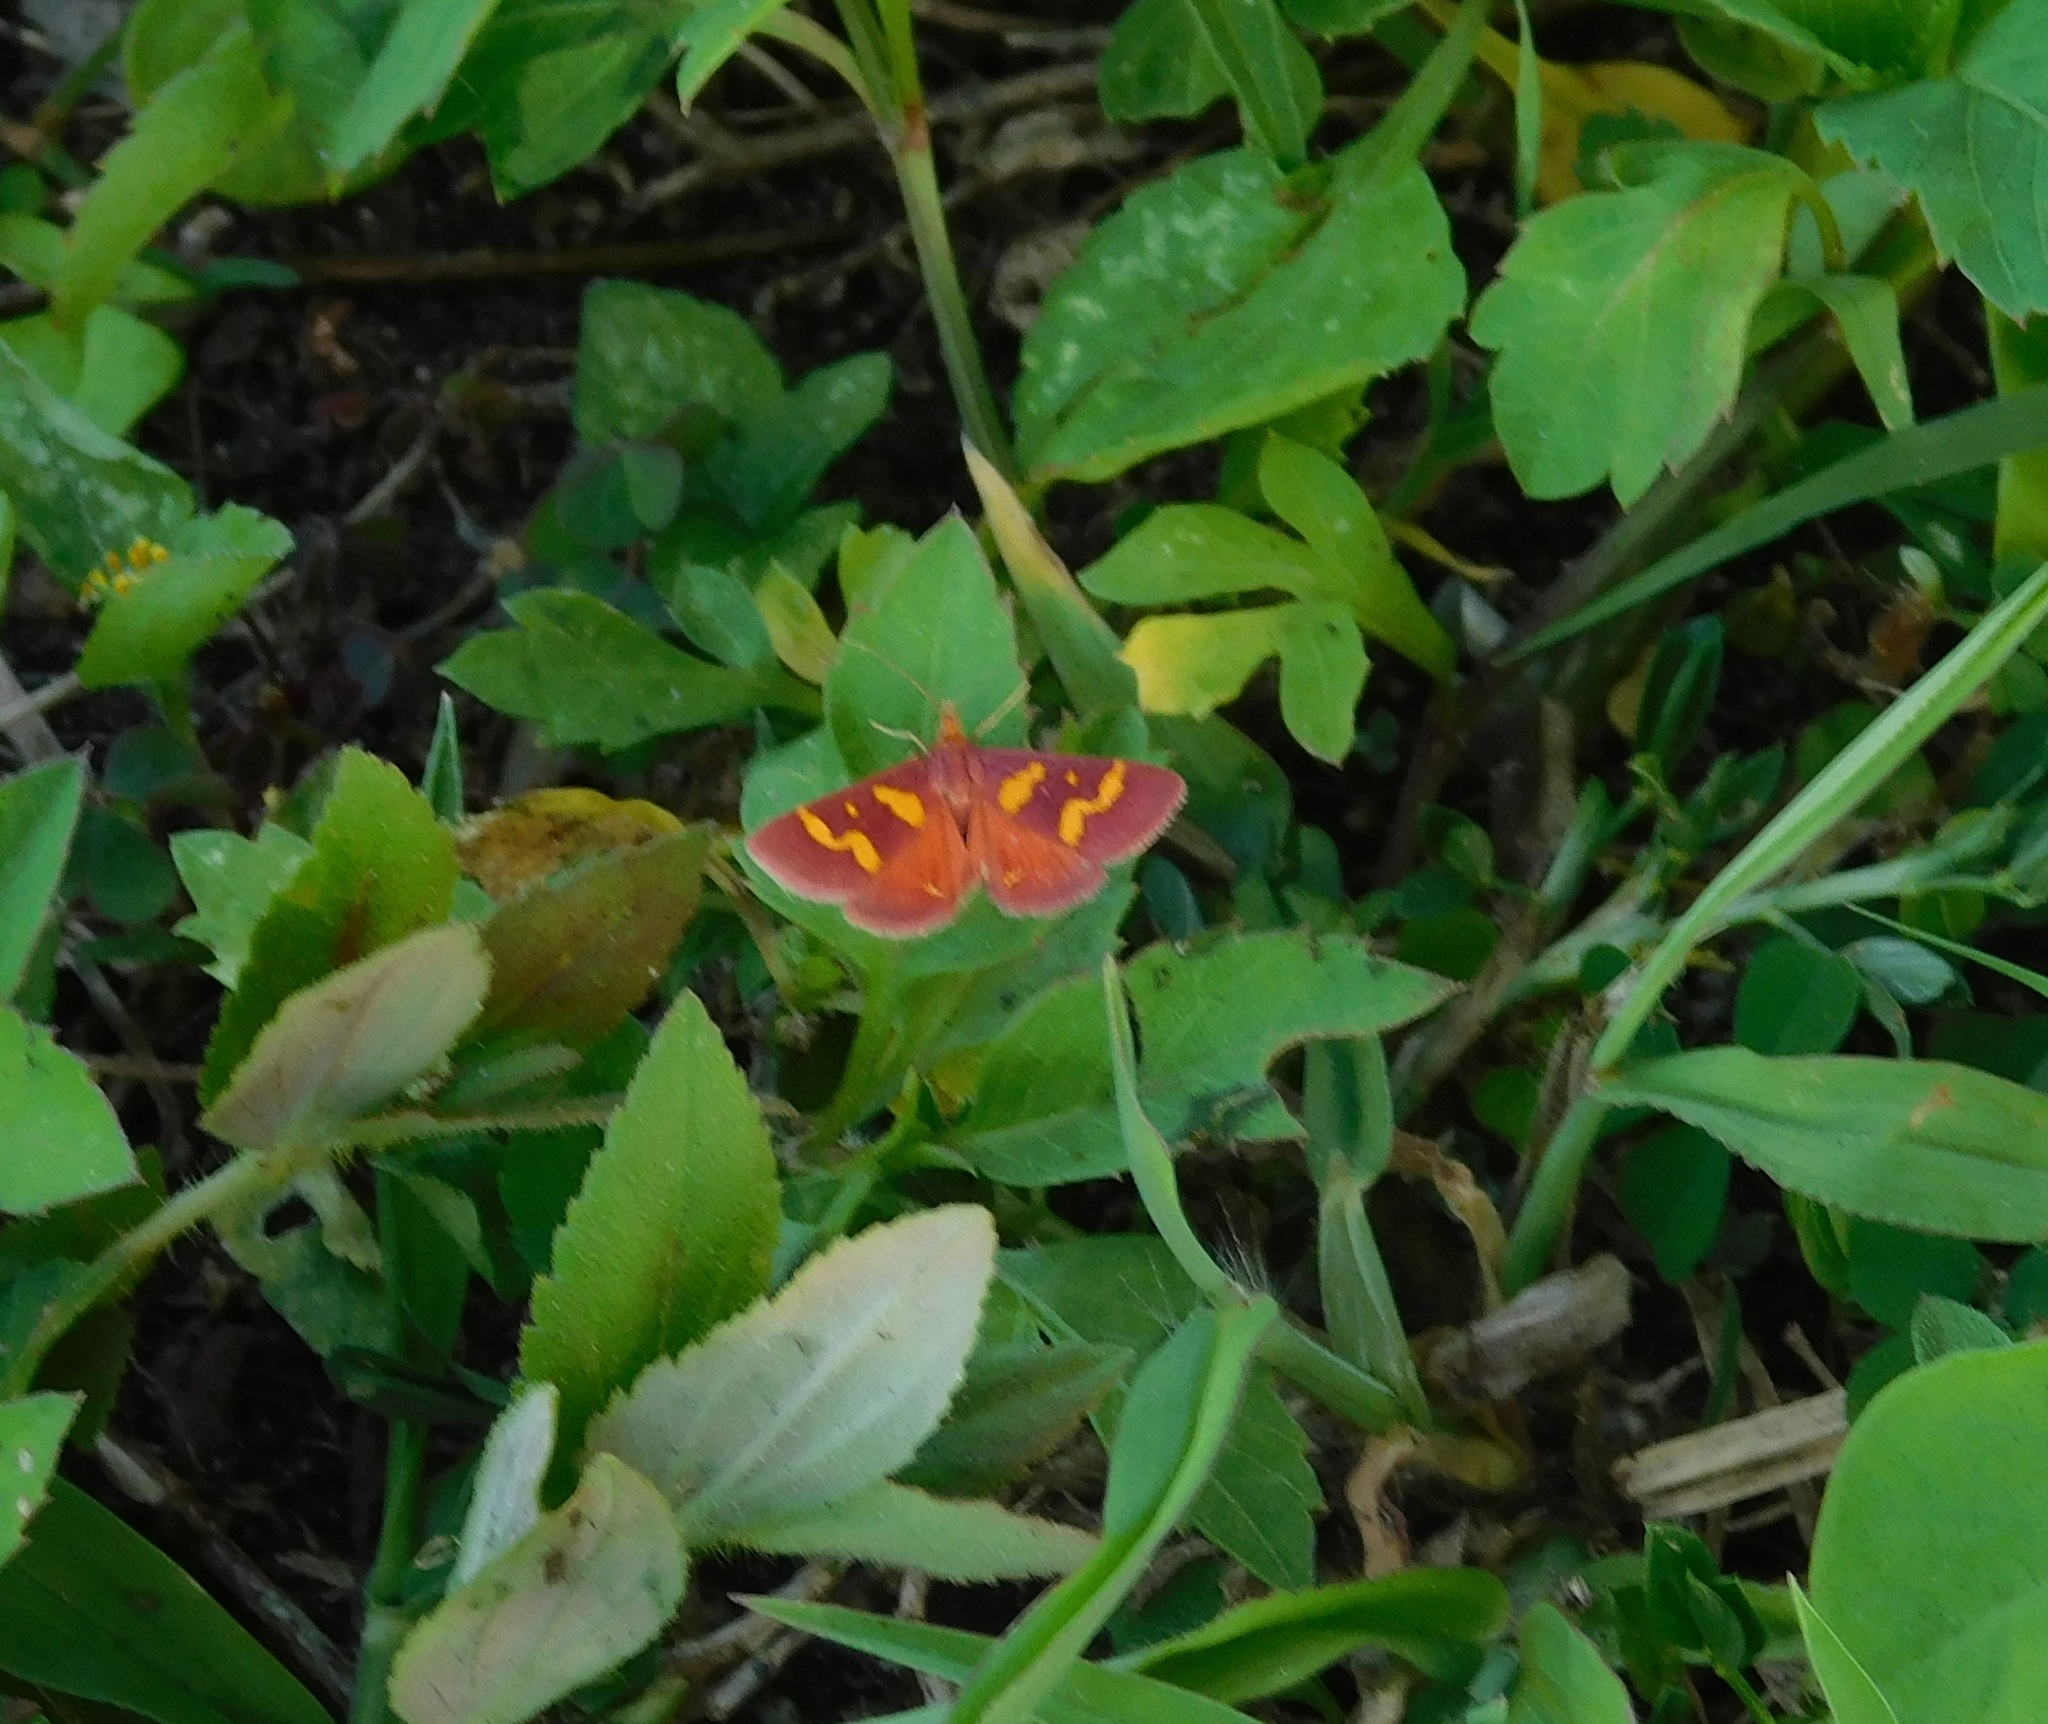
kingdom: Animalia
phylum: Arthropoda
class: Insecta
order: Lepidoptera
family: Crambidae
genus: Pyrausta
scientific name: Pyrausta tyralis
